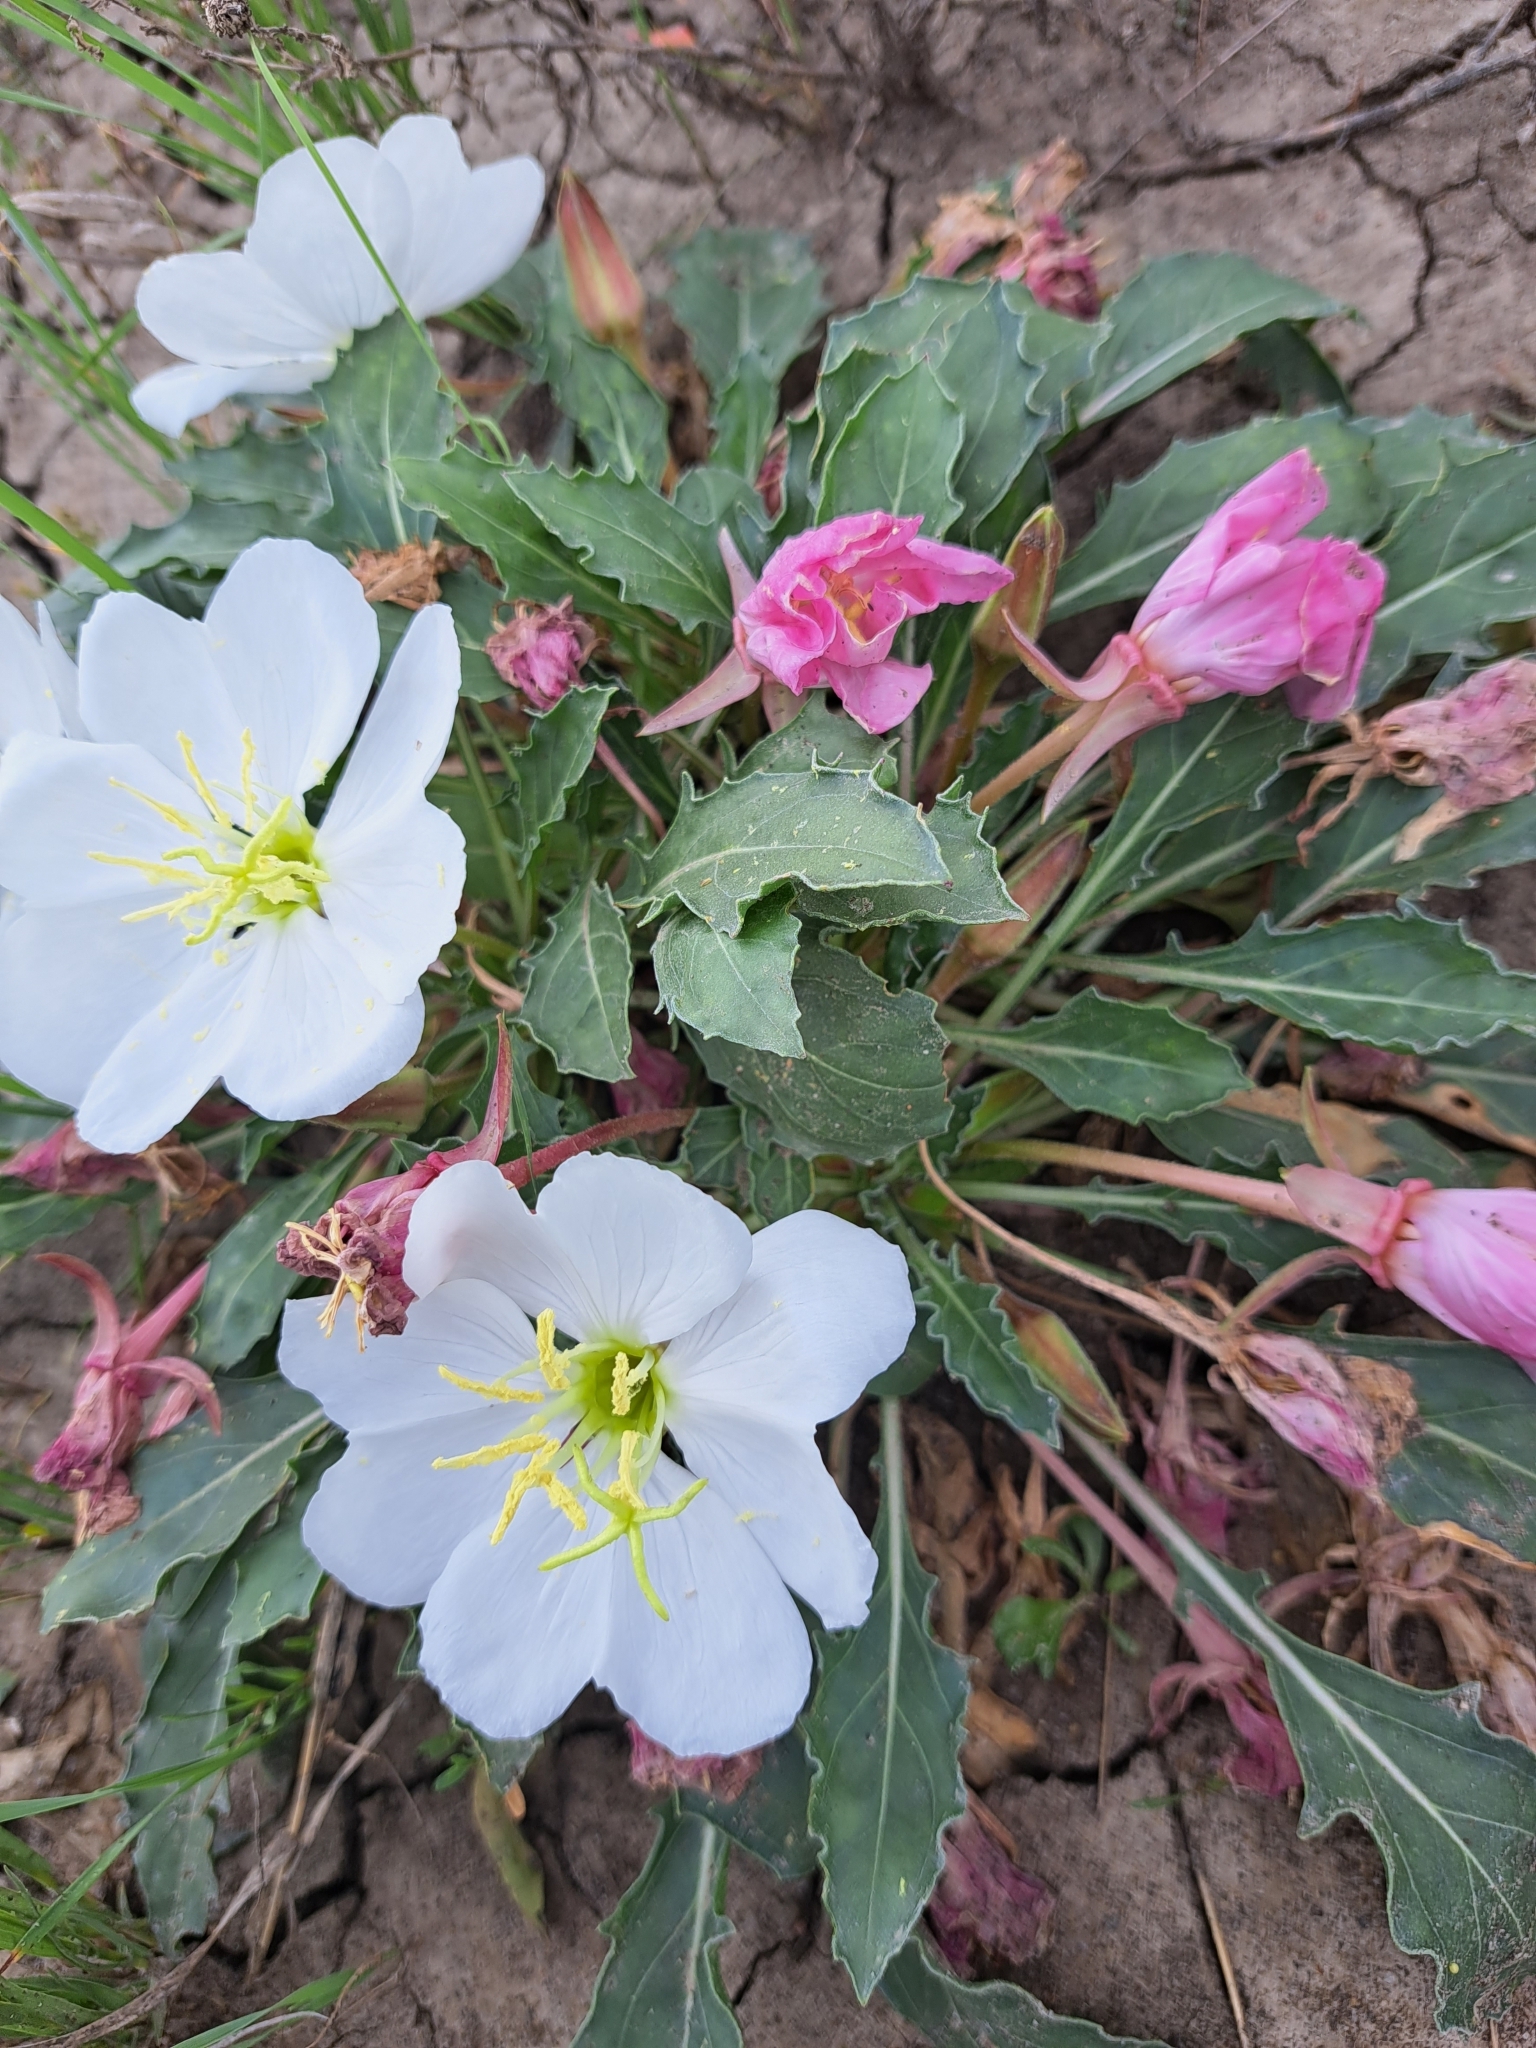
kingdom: Plantae
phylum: Tracheophyta
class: Magnoliopsida
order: Myrtales
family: Onagraceae
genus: Oenothera
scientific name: Oenothera cespitosa
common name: Tufted evening-primrose
